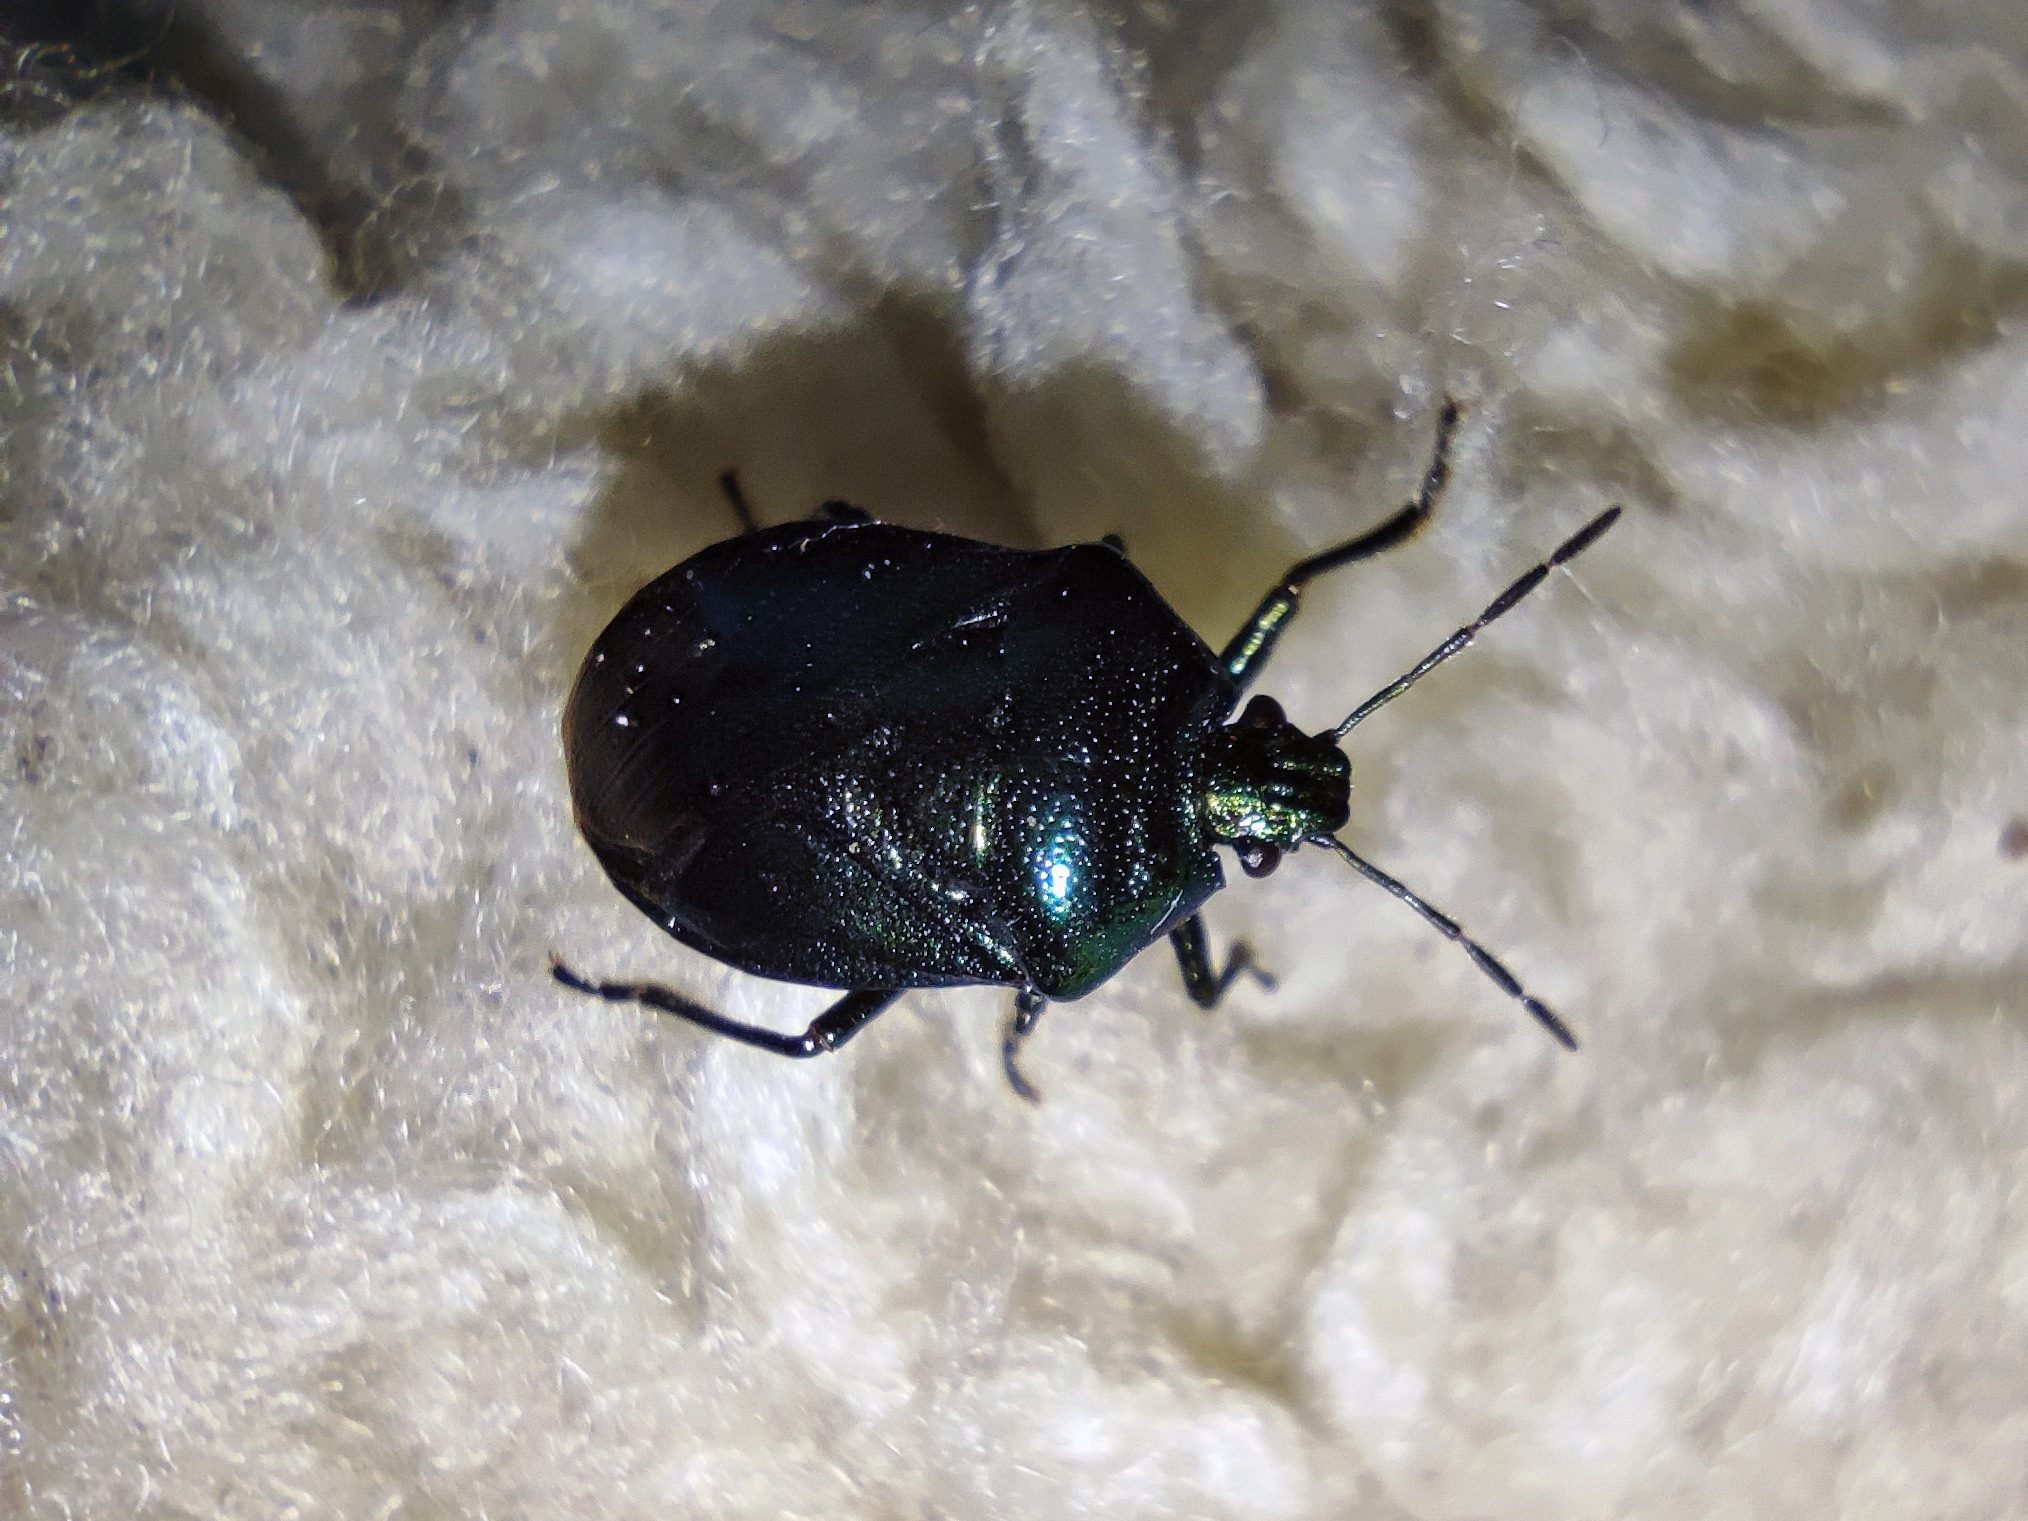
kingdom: Animalia
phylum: Arthropoda
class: Insecta
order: Hemiptera
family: Pentatomidae
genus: Zicrona
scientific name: Zicrona caerulea
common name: Blue shieldbug
